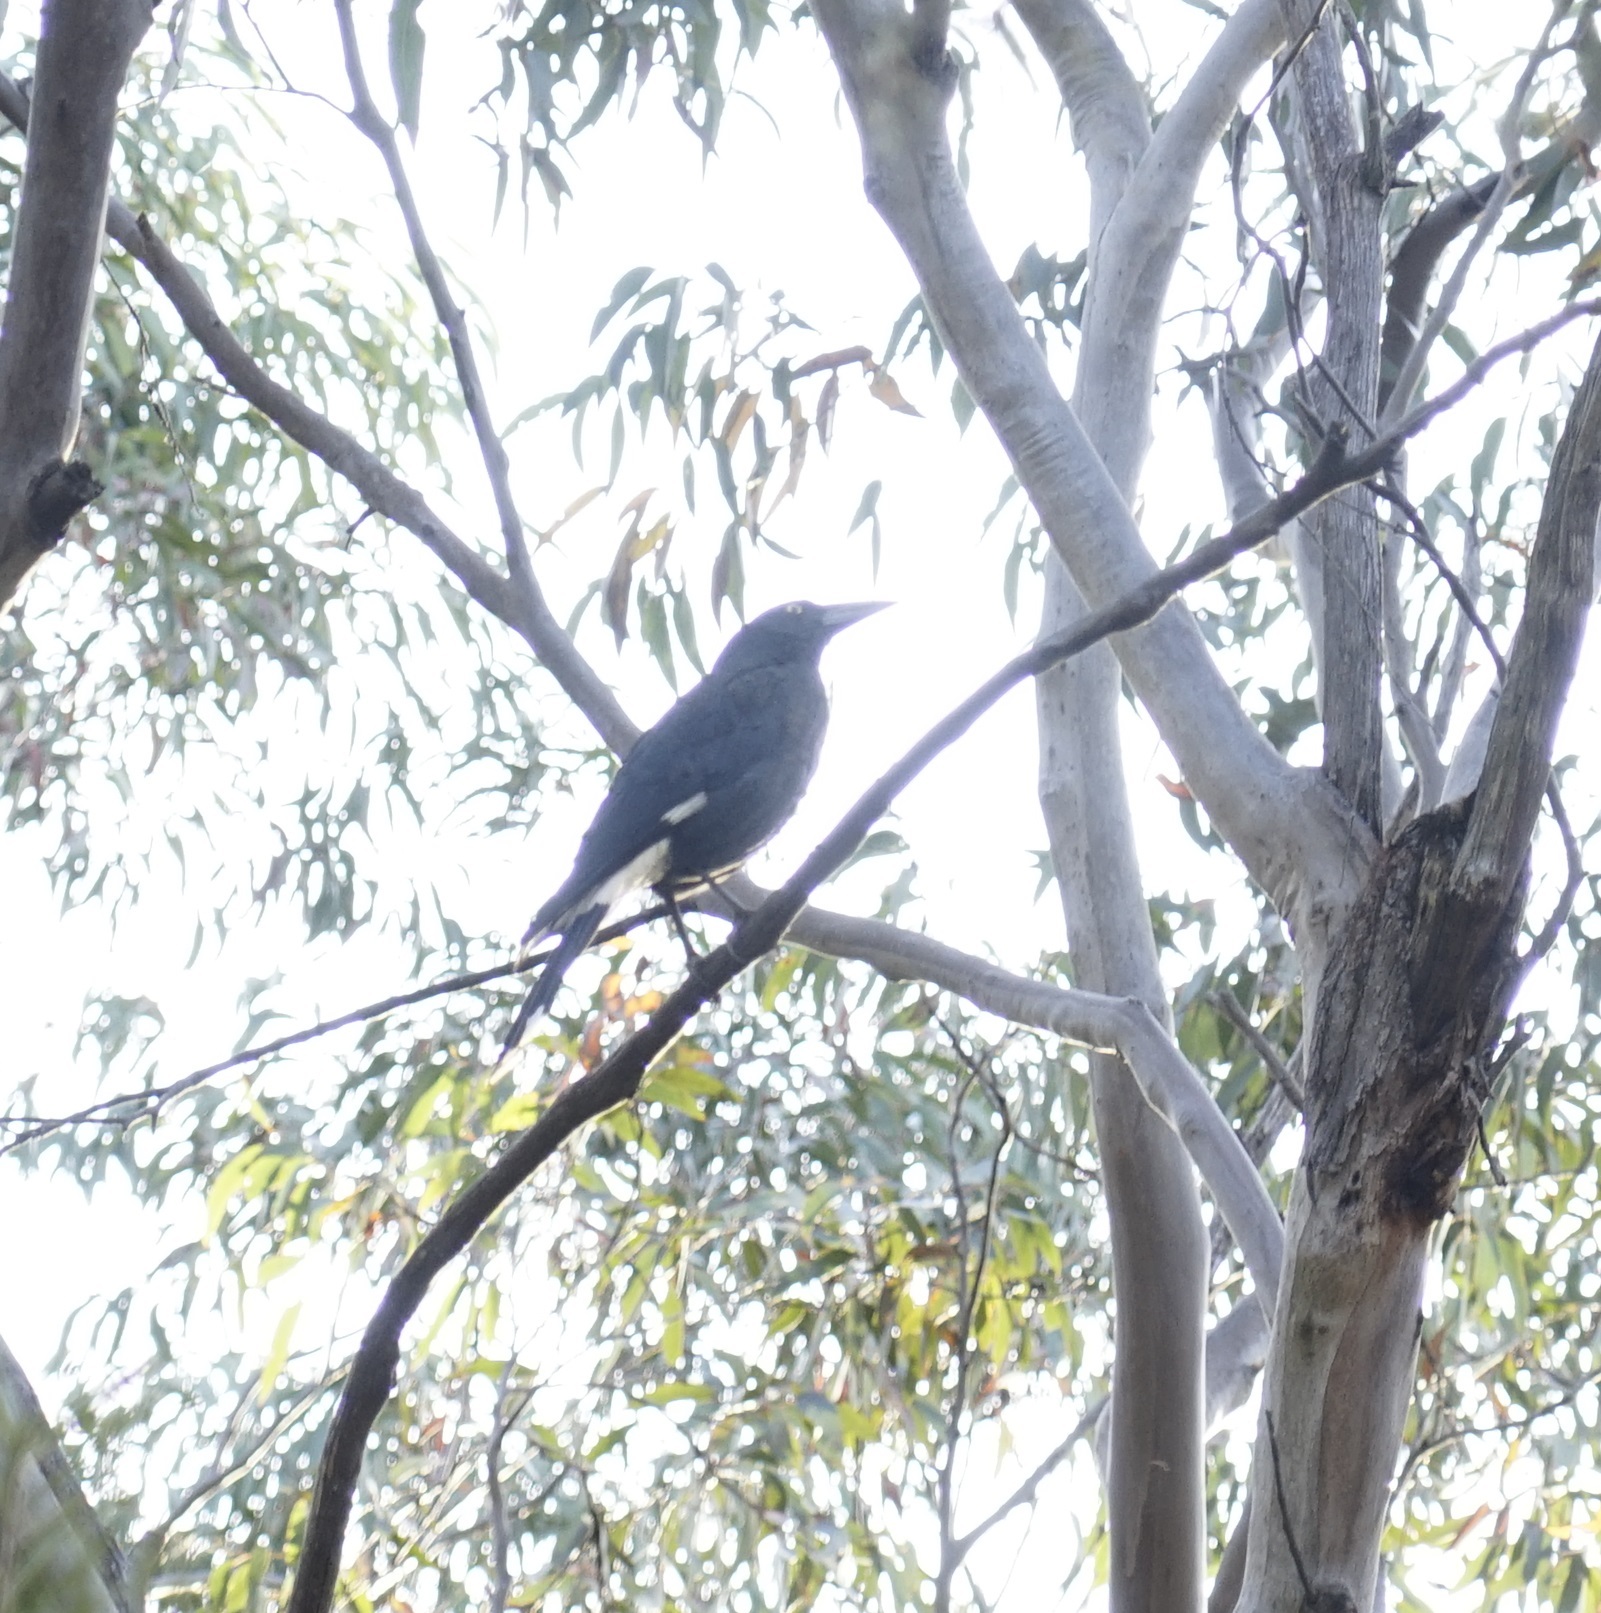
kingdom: Animalia
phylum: Chordata
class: Aves
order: Passeriformes
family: Cracticidae
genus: Strepera
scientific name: Strepera graculina
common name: Pied currawong
